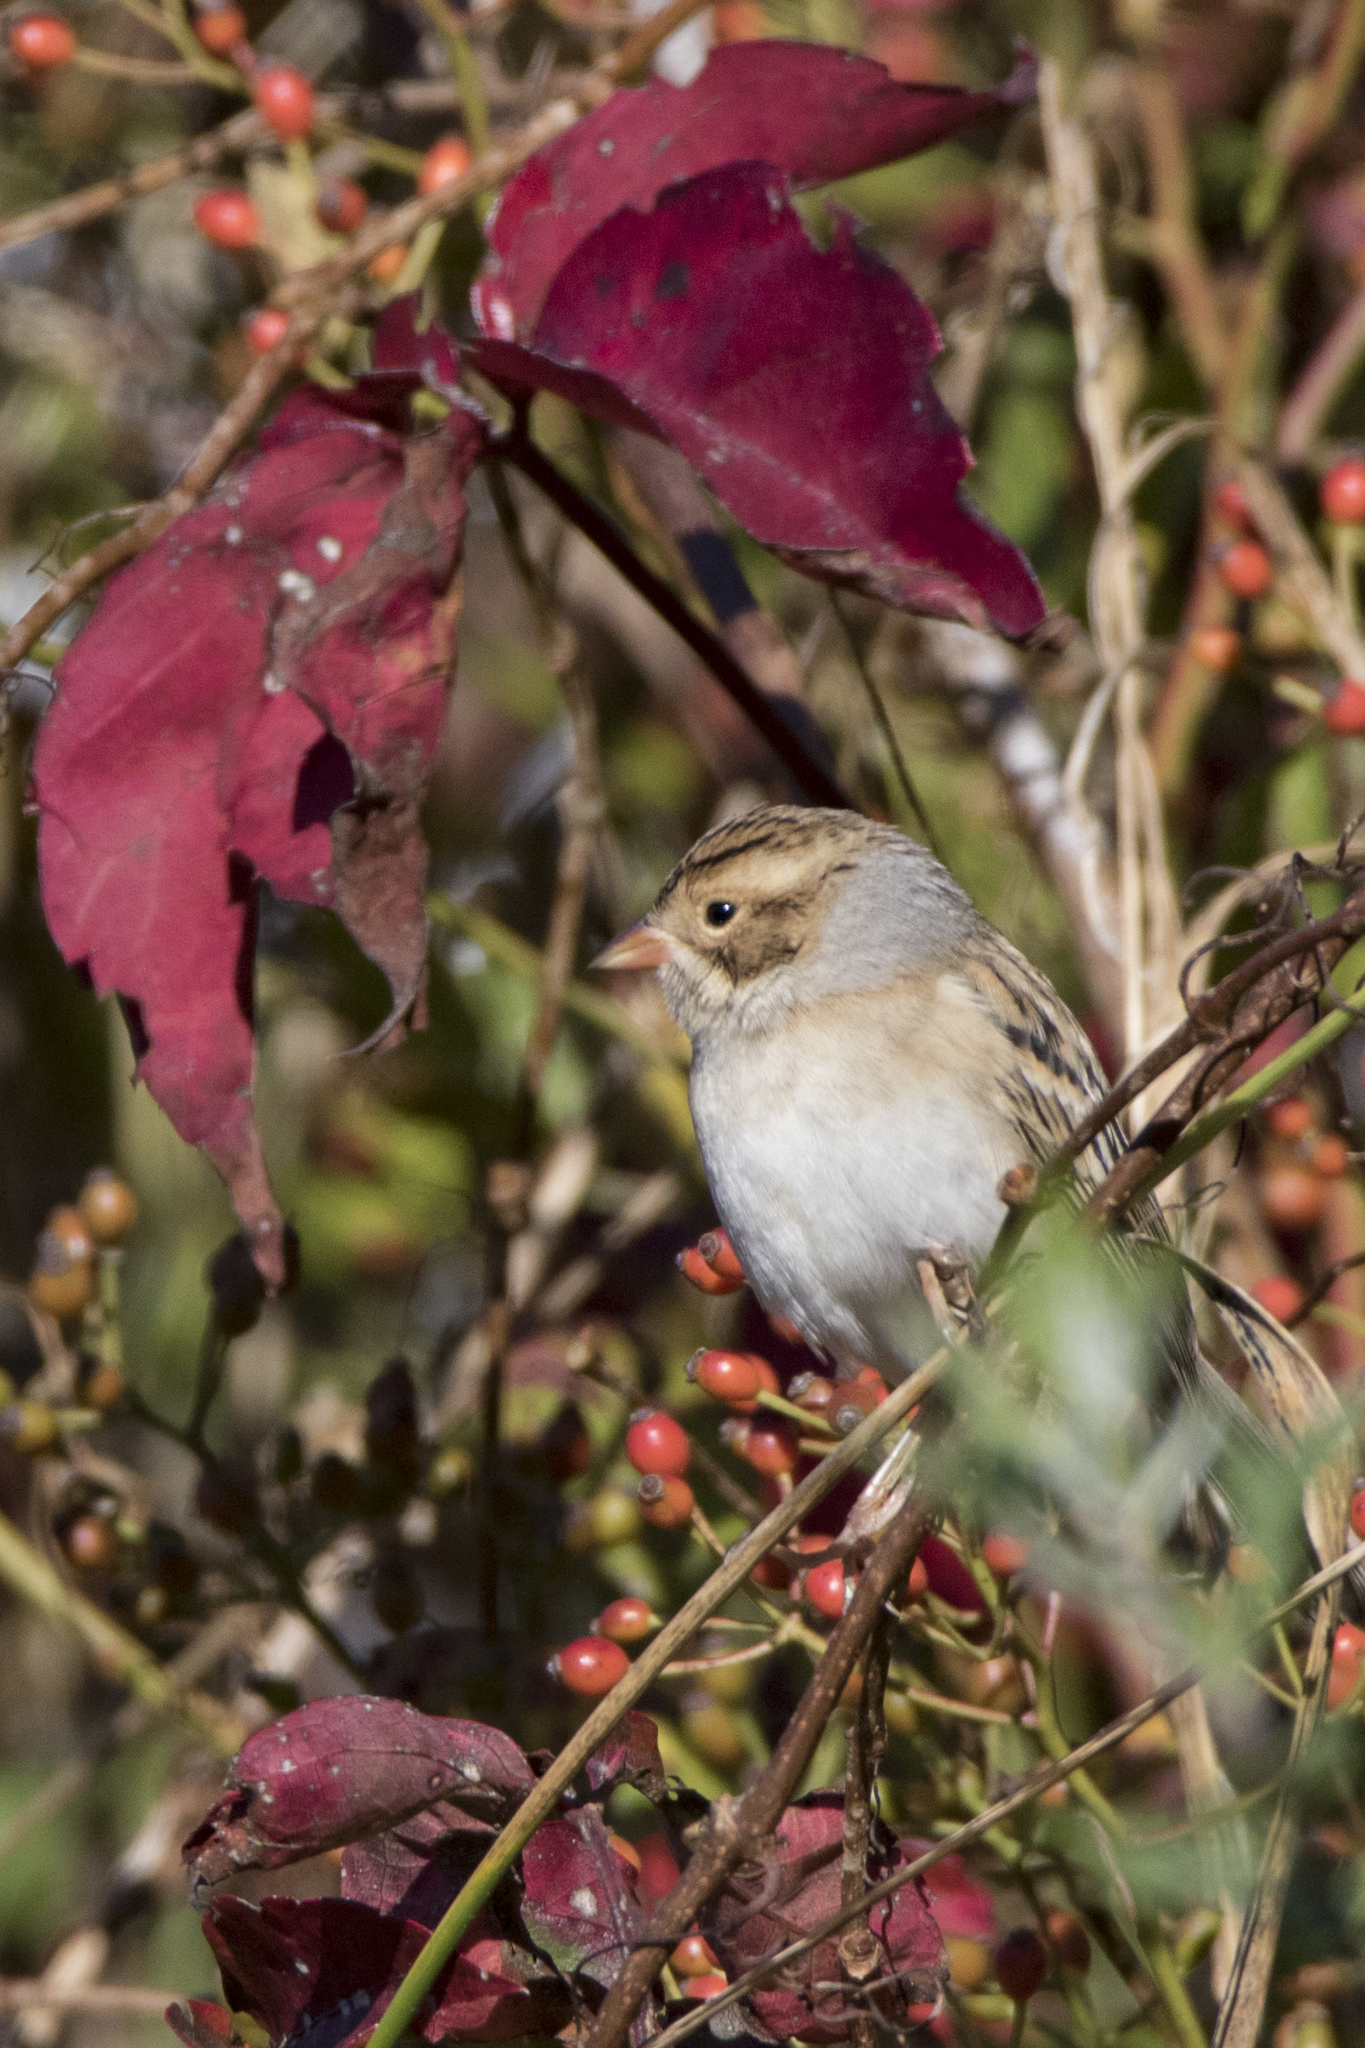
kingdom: Animalia
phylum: Chordata
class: Aves
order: Passeriformes
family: Passerellidae
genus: Spizella
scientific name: Spizella pallida
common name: Clay-colored sparrow
